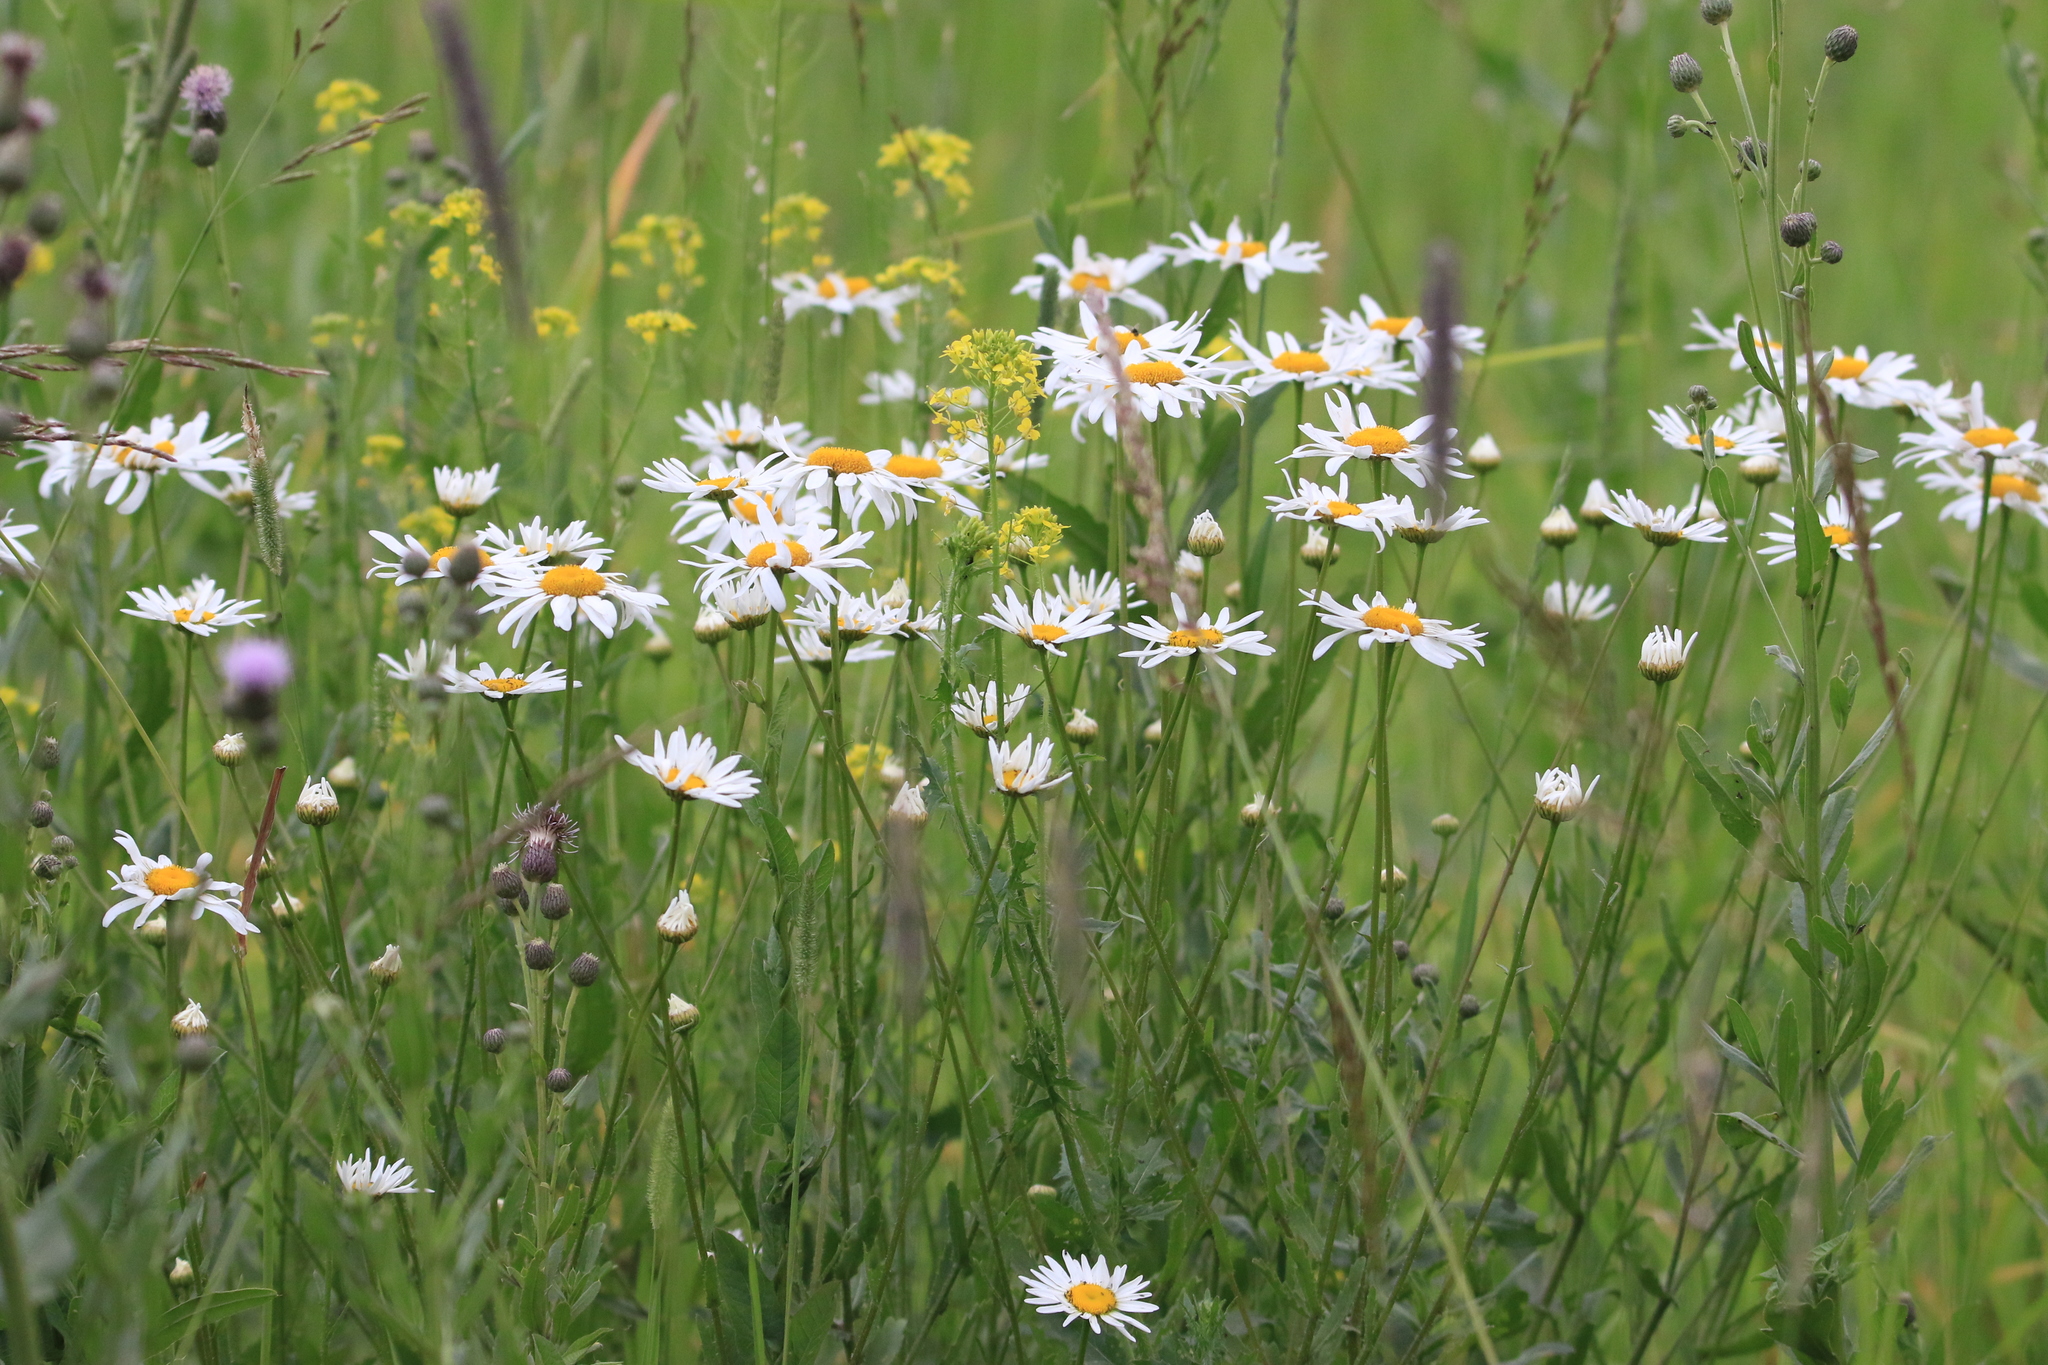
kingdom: Plantae
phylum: Tracheophyta
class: Magnoliopsida
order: Asterales
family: Asteraceae
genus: Leucanthemum
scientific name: Leucanthemum vulgare
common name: Oxeye daisy
